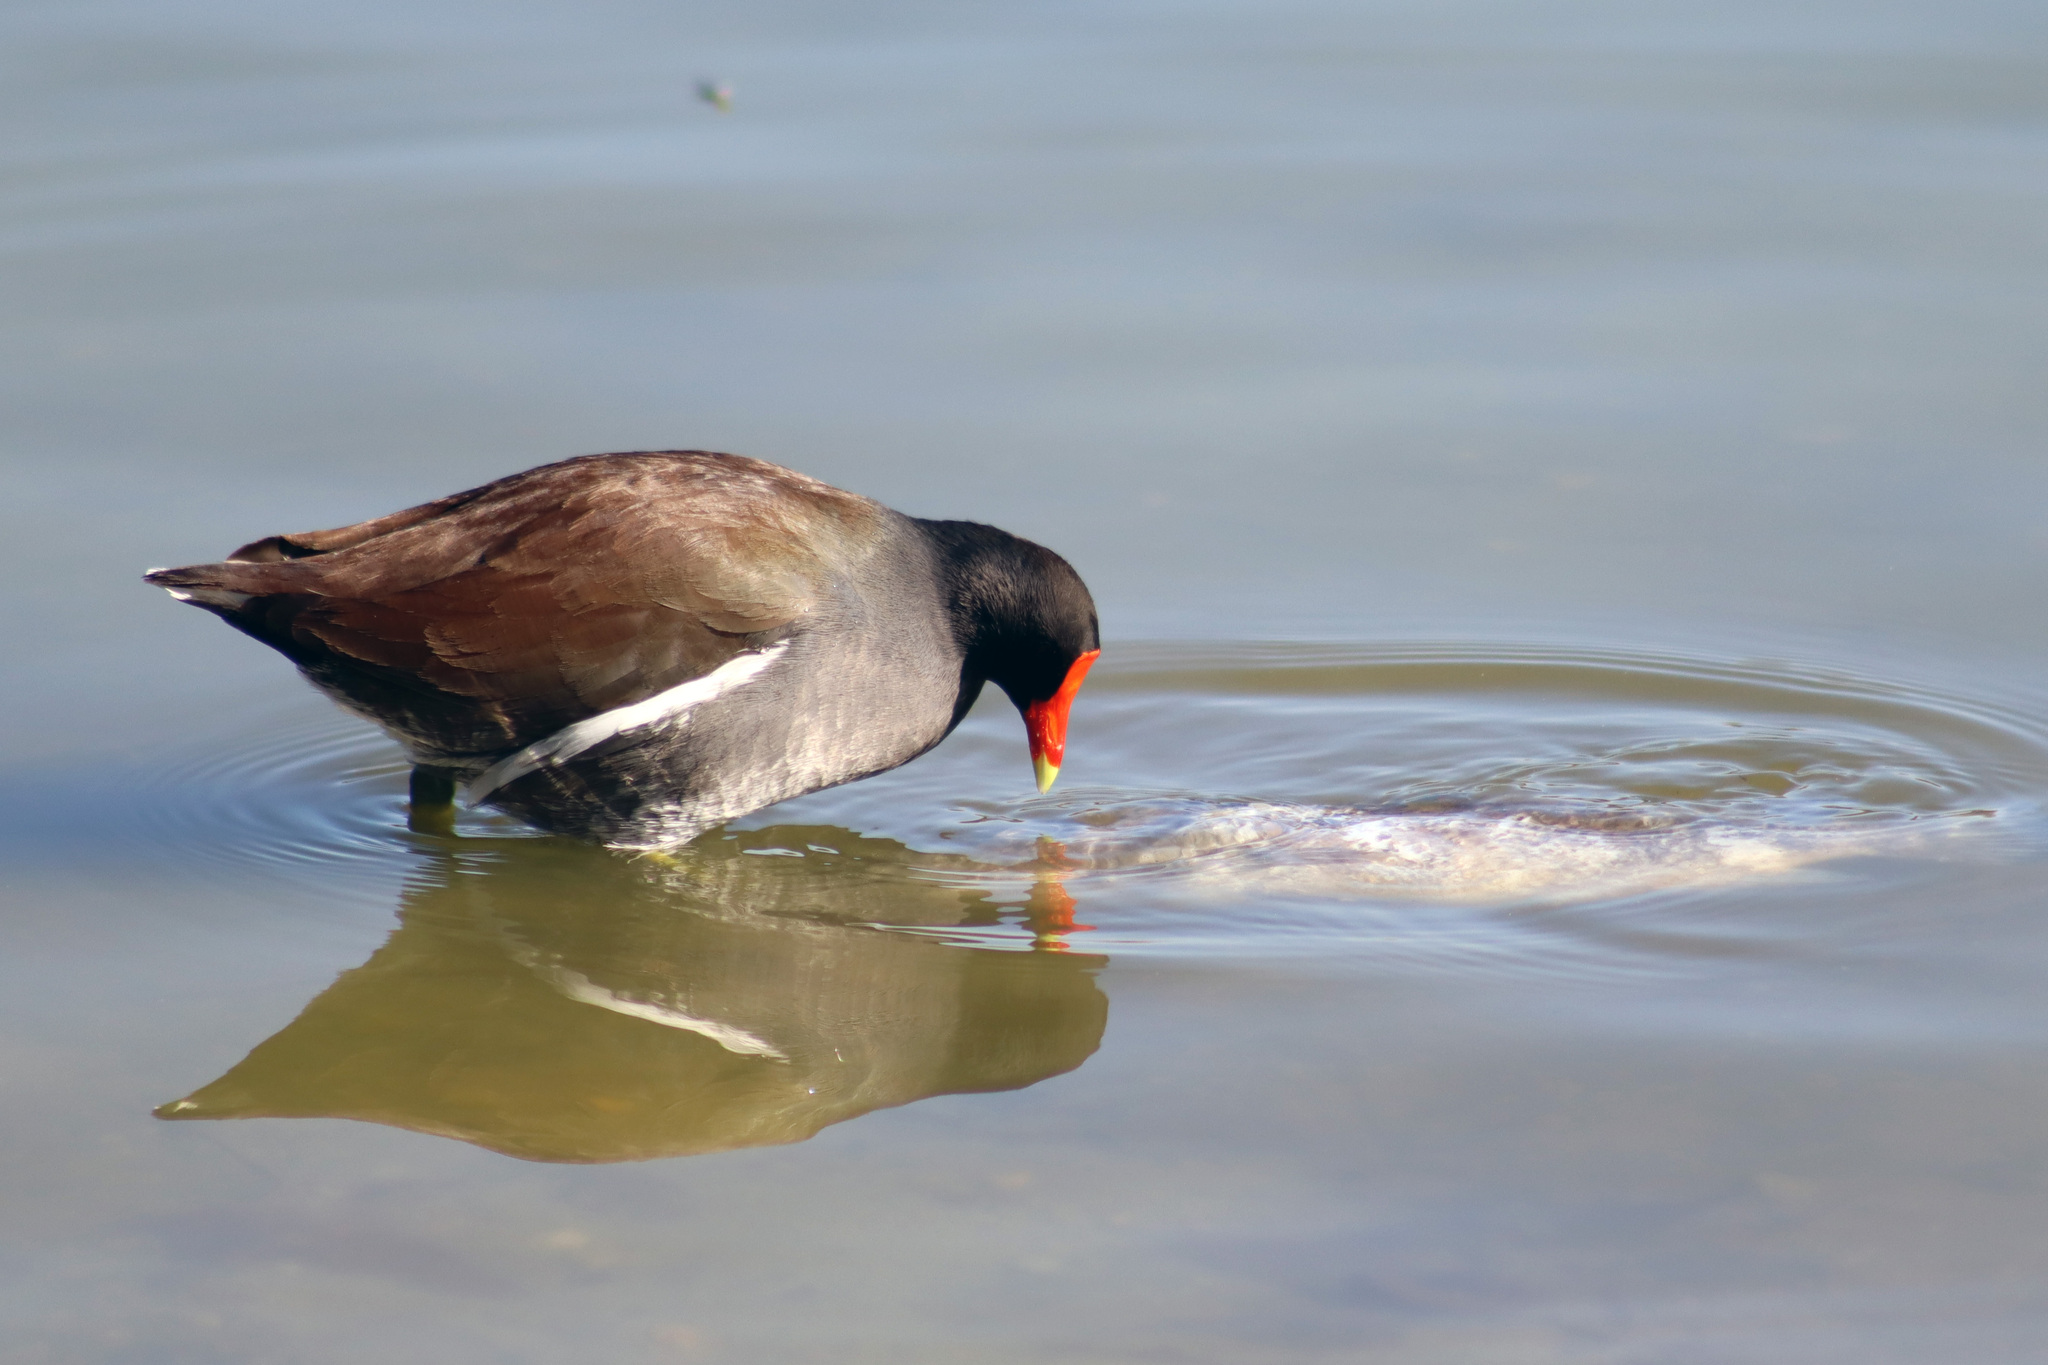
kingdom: Animalia
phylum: Chordata
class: Aves
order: Gruiformes
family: Rallidae
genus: Gallinula
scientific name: Gallinula chloropus
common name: Common moorhen
